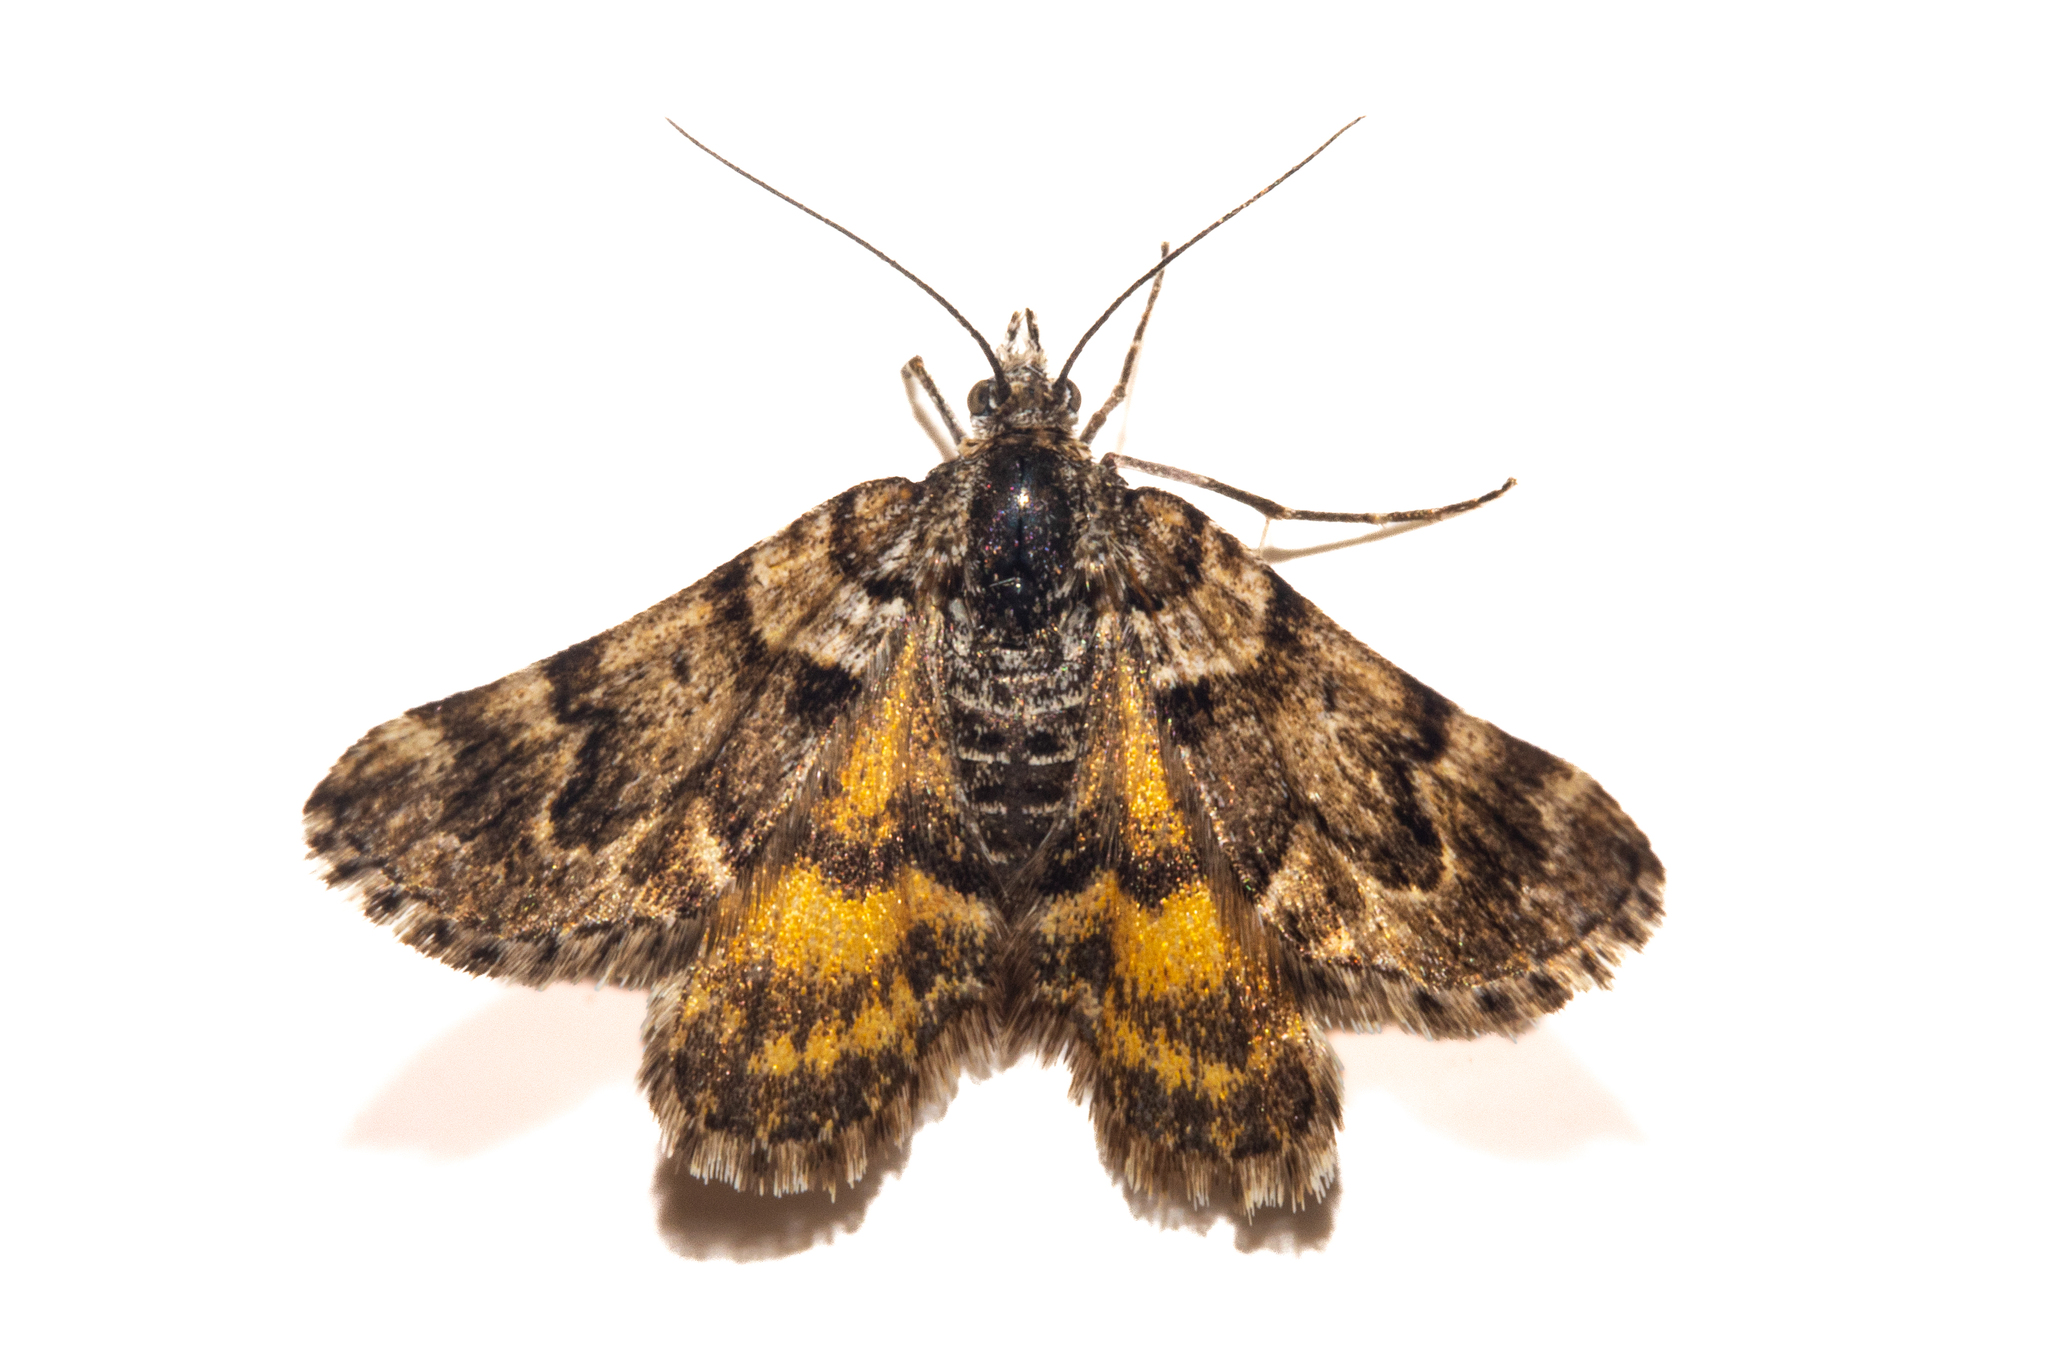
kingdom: Animalia
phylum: Arthropoda
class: Insecta
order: Lepidoptera
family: Geometridae
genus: Arctesthes
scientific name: Arctesthes catapyrrha
